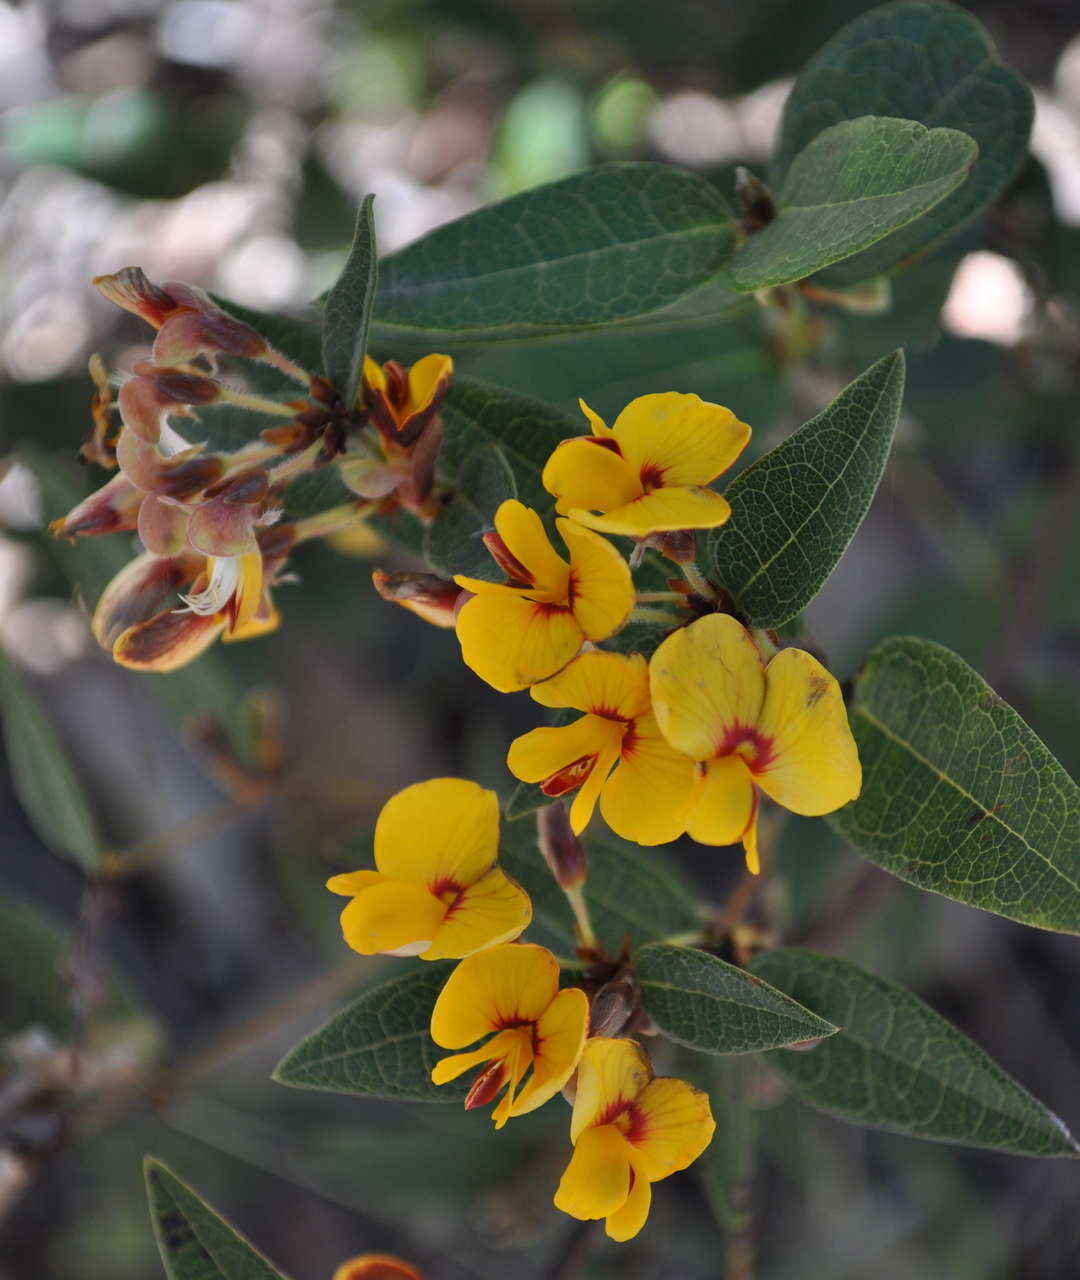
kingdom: Plantae
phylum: Tracheophyta
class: Magnoliopsida
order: Fabales
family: Fabaceae
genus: Platylobium
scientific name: Platylobium parviflorum
